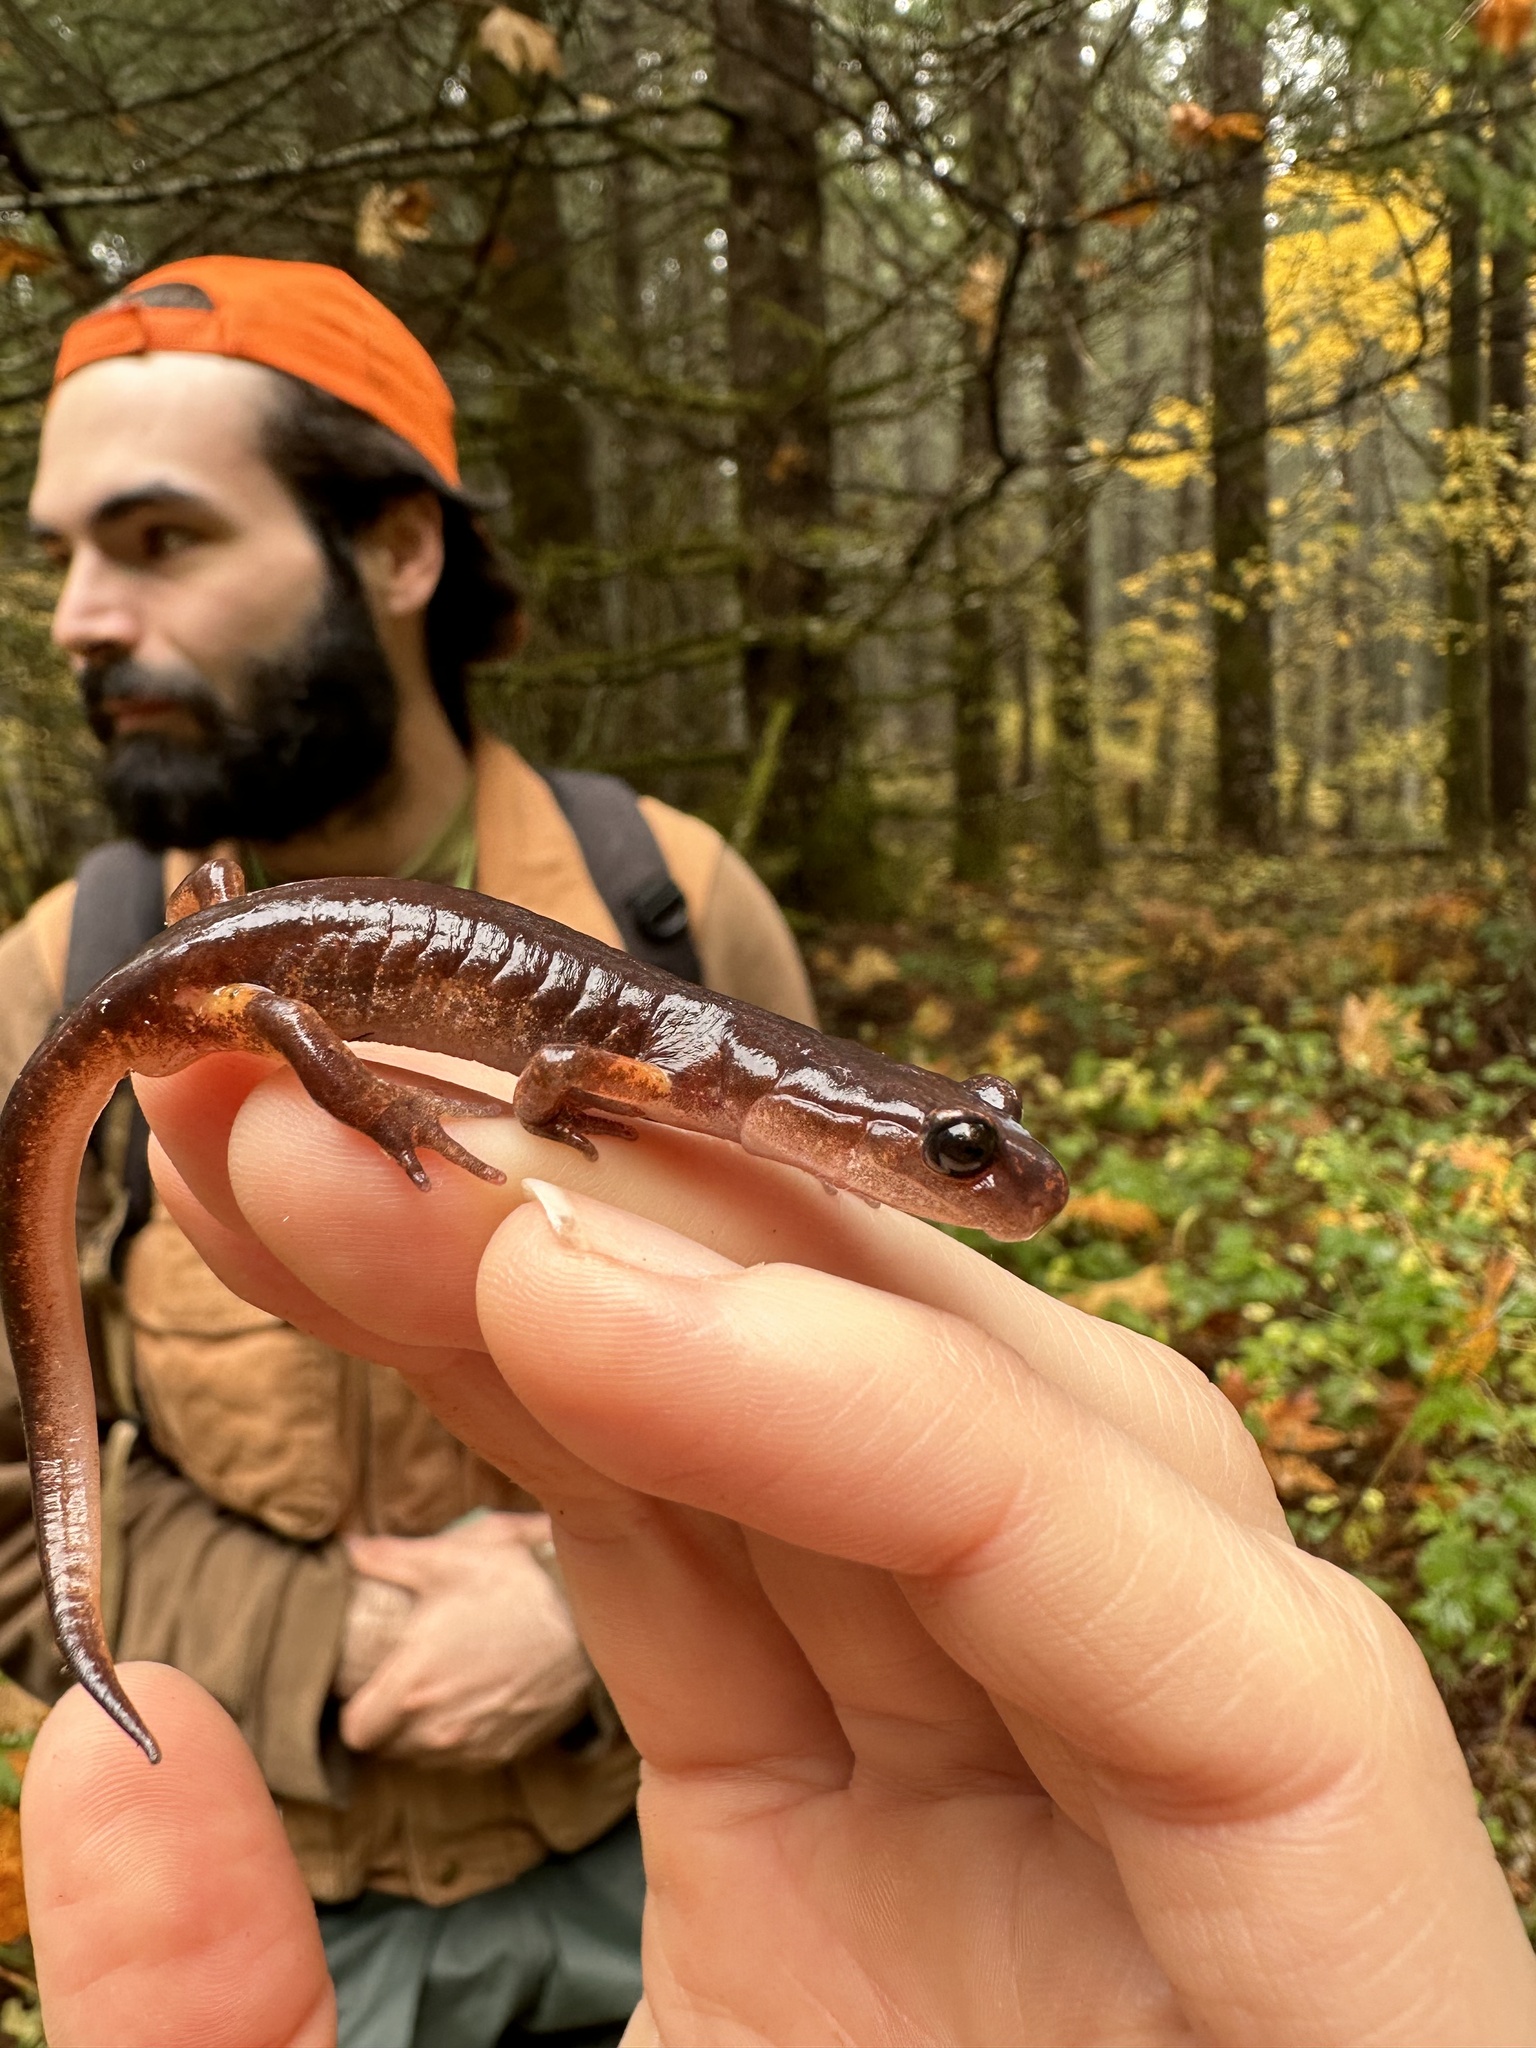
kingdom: Animalia
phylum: Chordata
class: Amphibia
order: Caudata
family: Plethodontidae
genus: Ensatina
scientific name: Ensatina eschscholtzii
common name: Ensatina
